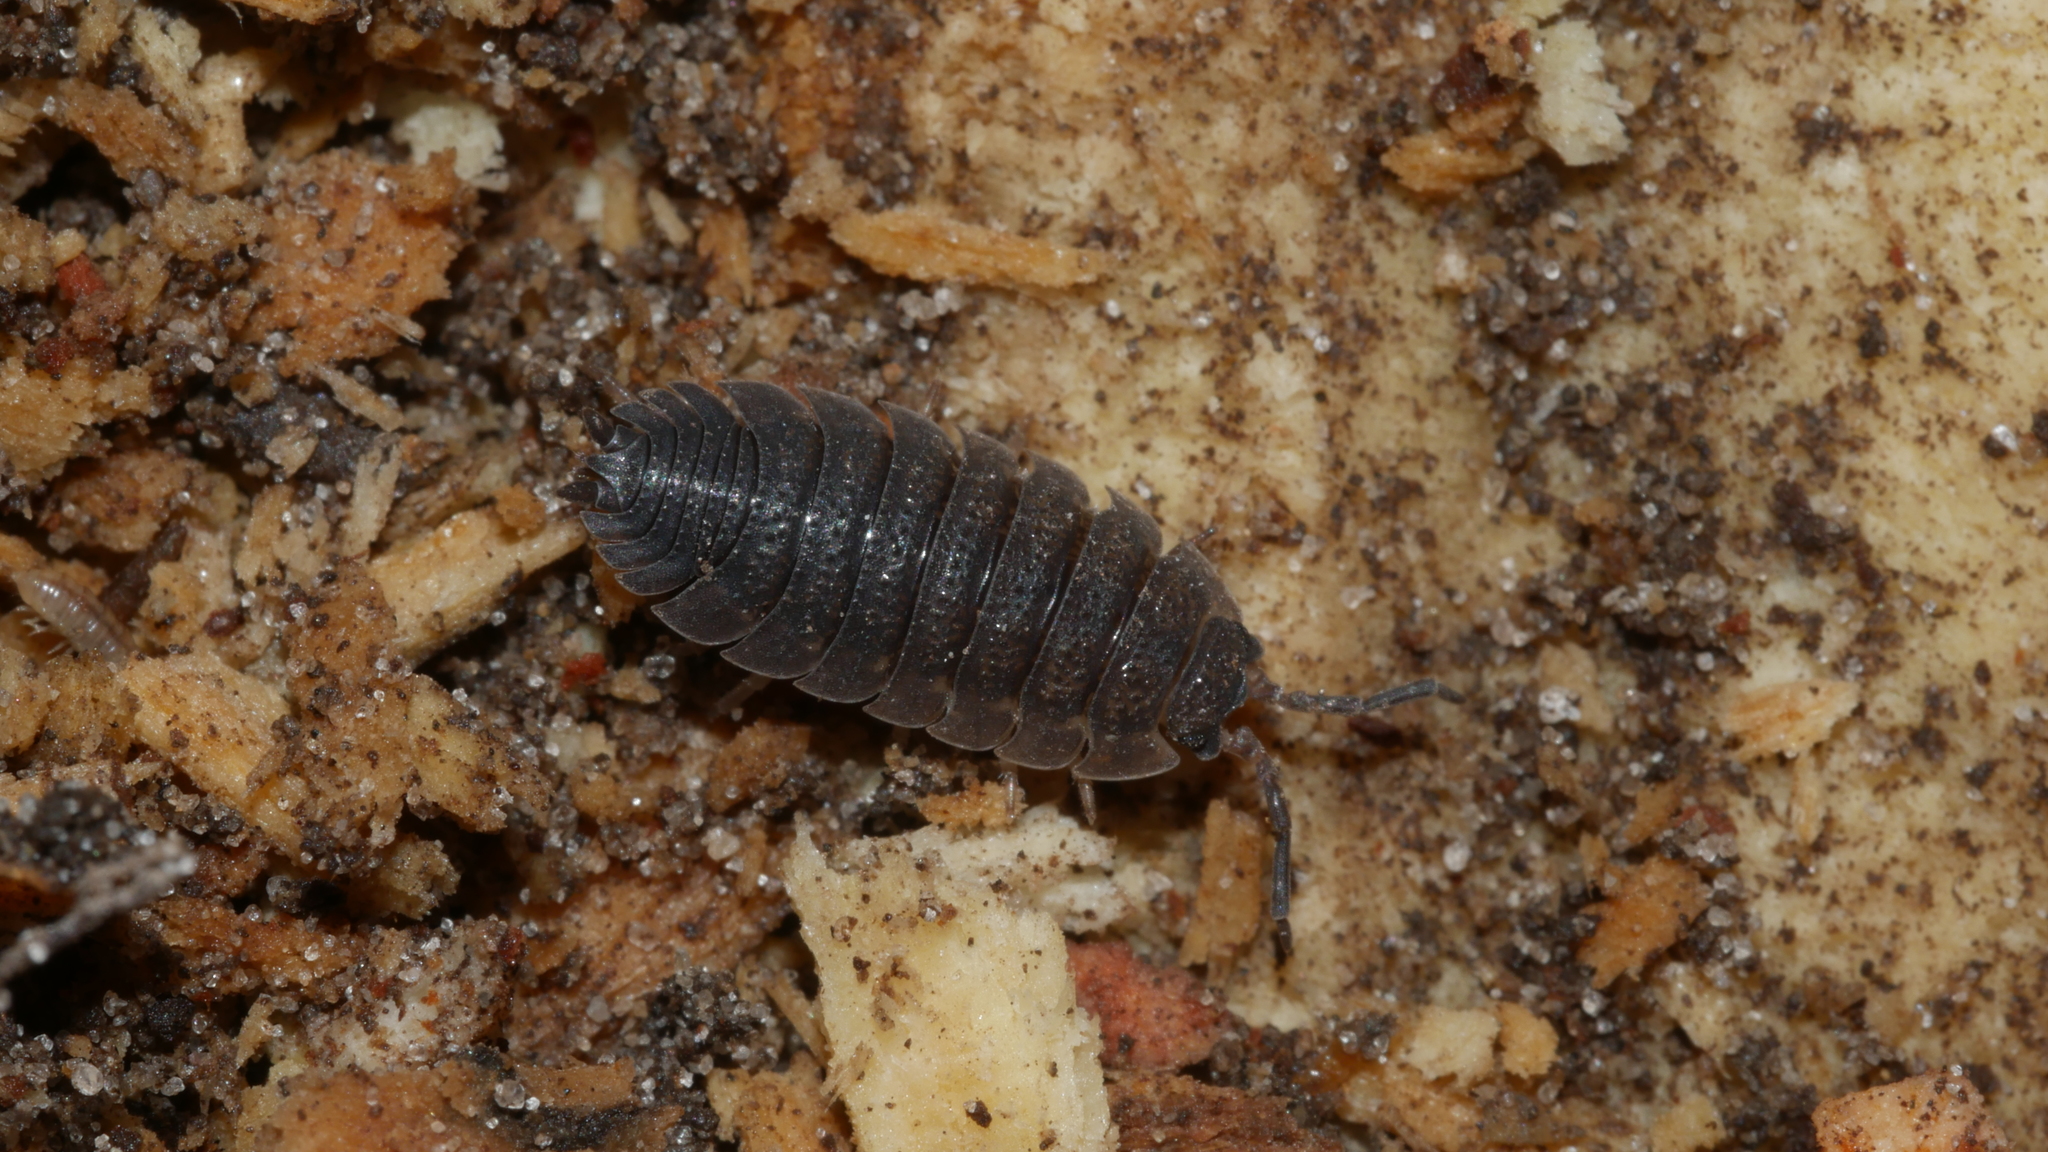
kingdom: Animalia
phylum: Arthropoda
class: Malacostraca
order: Isopoda
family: Porcellionidae
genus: Porcellio
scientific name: Porcellio scaber
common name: Common rough woodlouse
